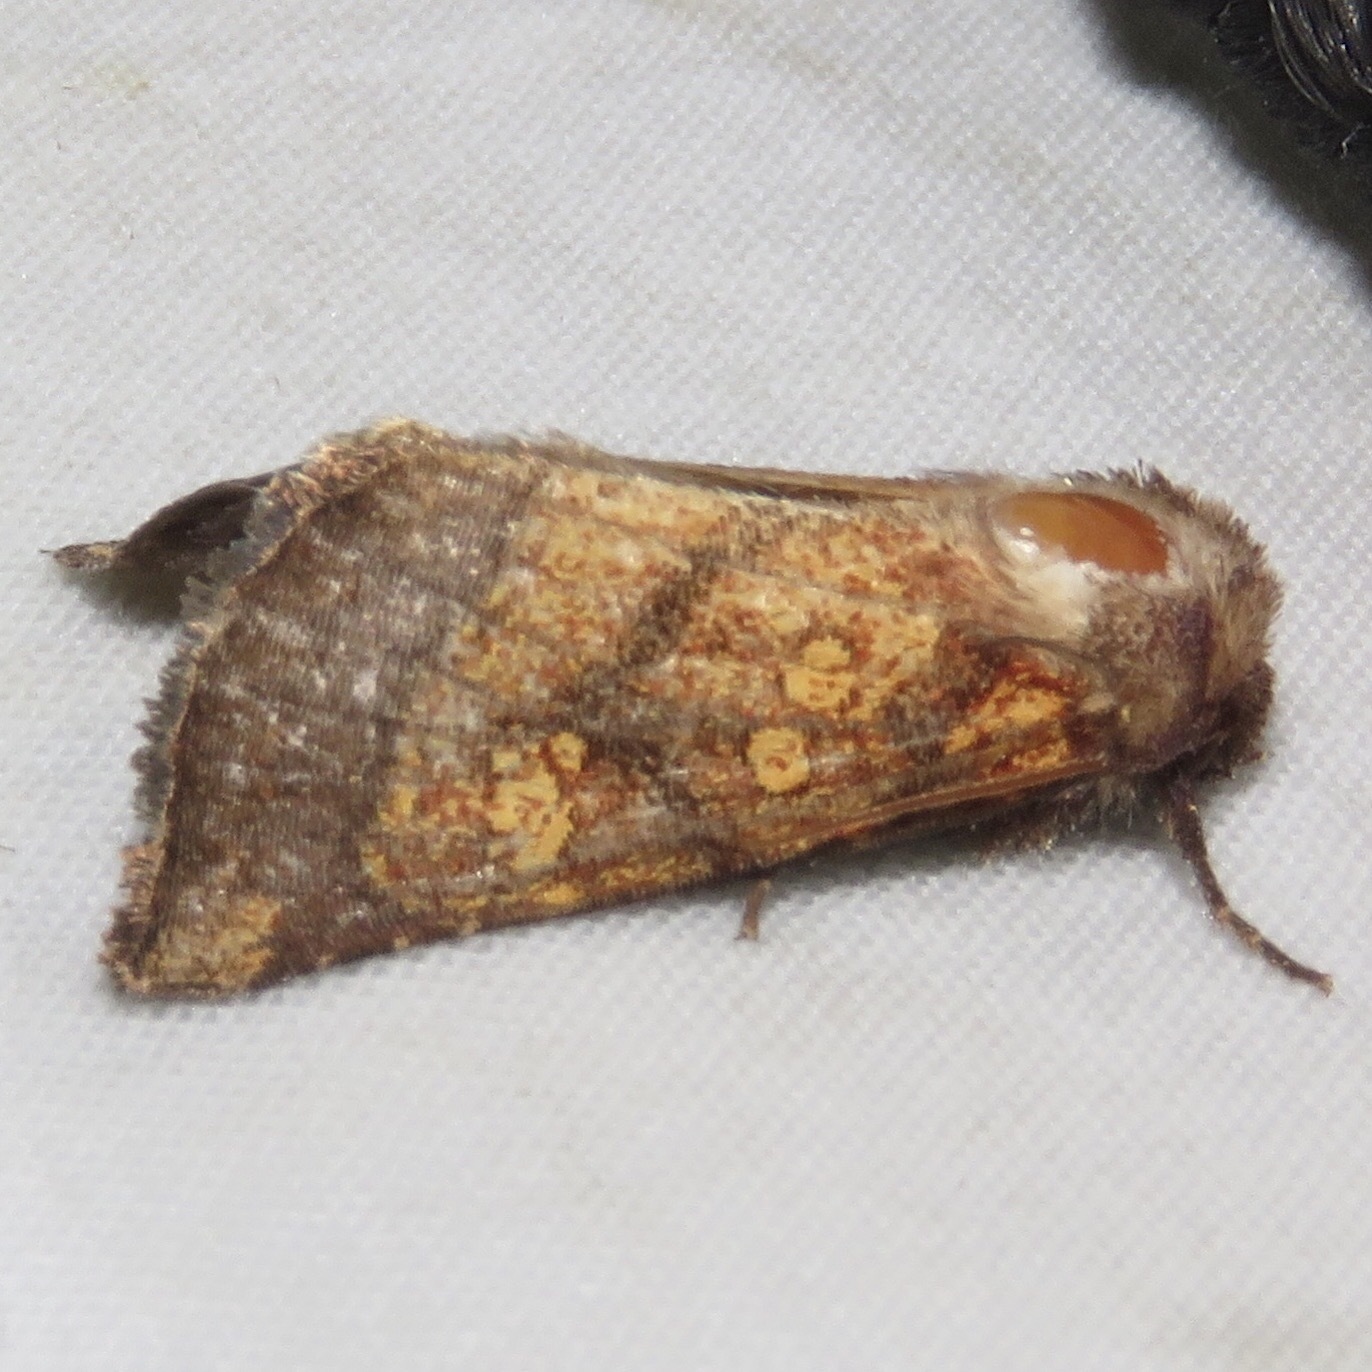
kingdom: Animalia
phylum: Arthropoda
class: Insecta
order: Lepidoptera
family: Noctuidae
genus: Papaipema
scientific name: Papaipema impecuniosa
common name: Aster borer moth
